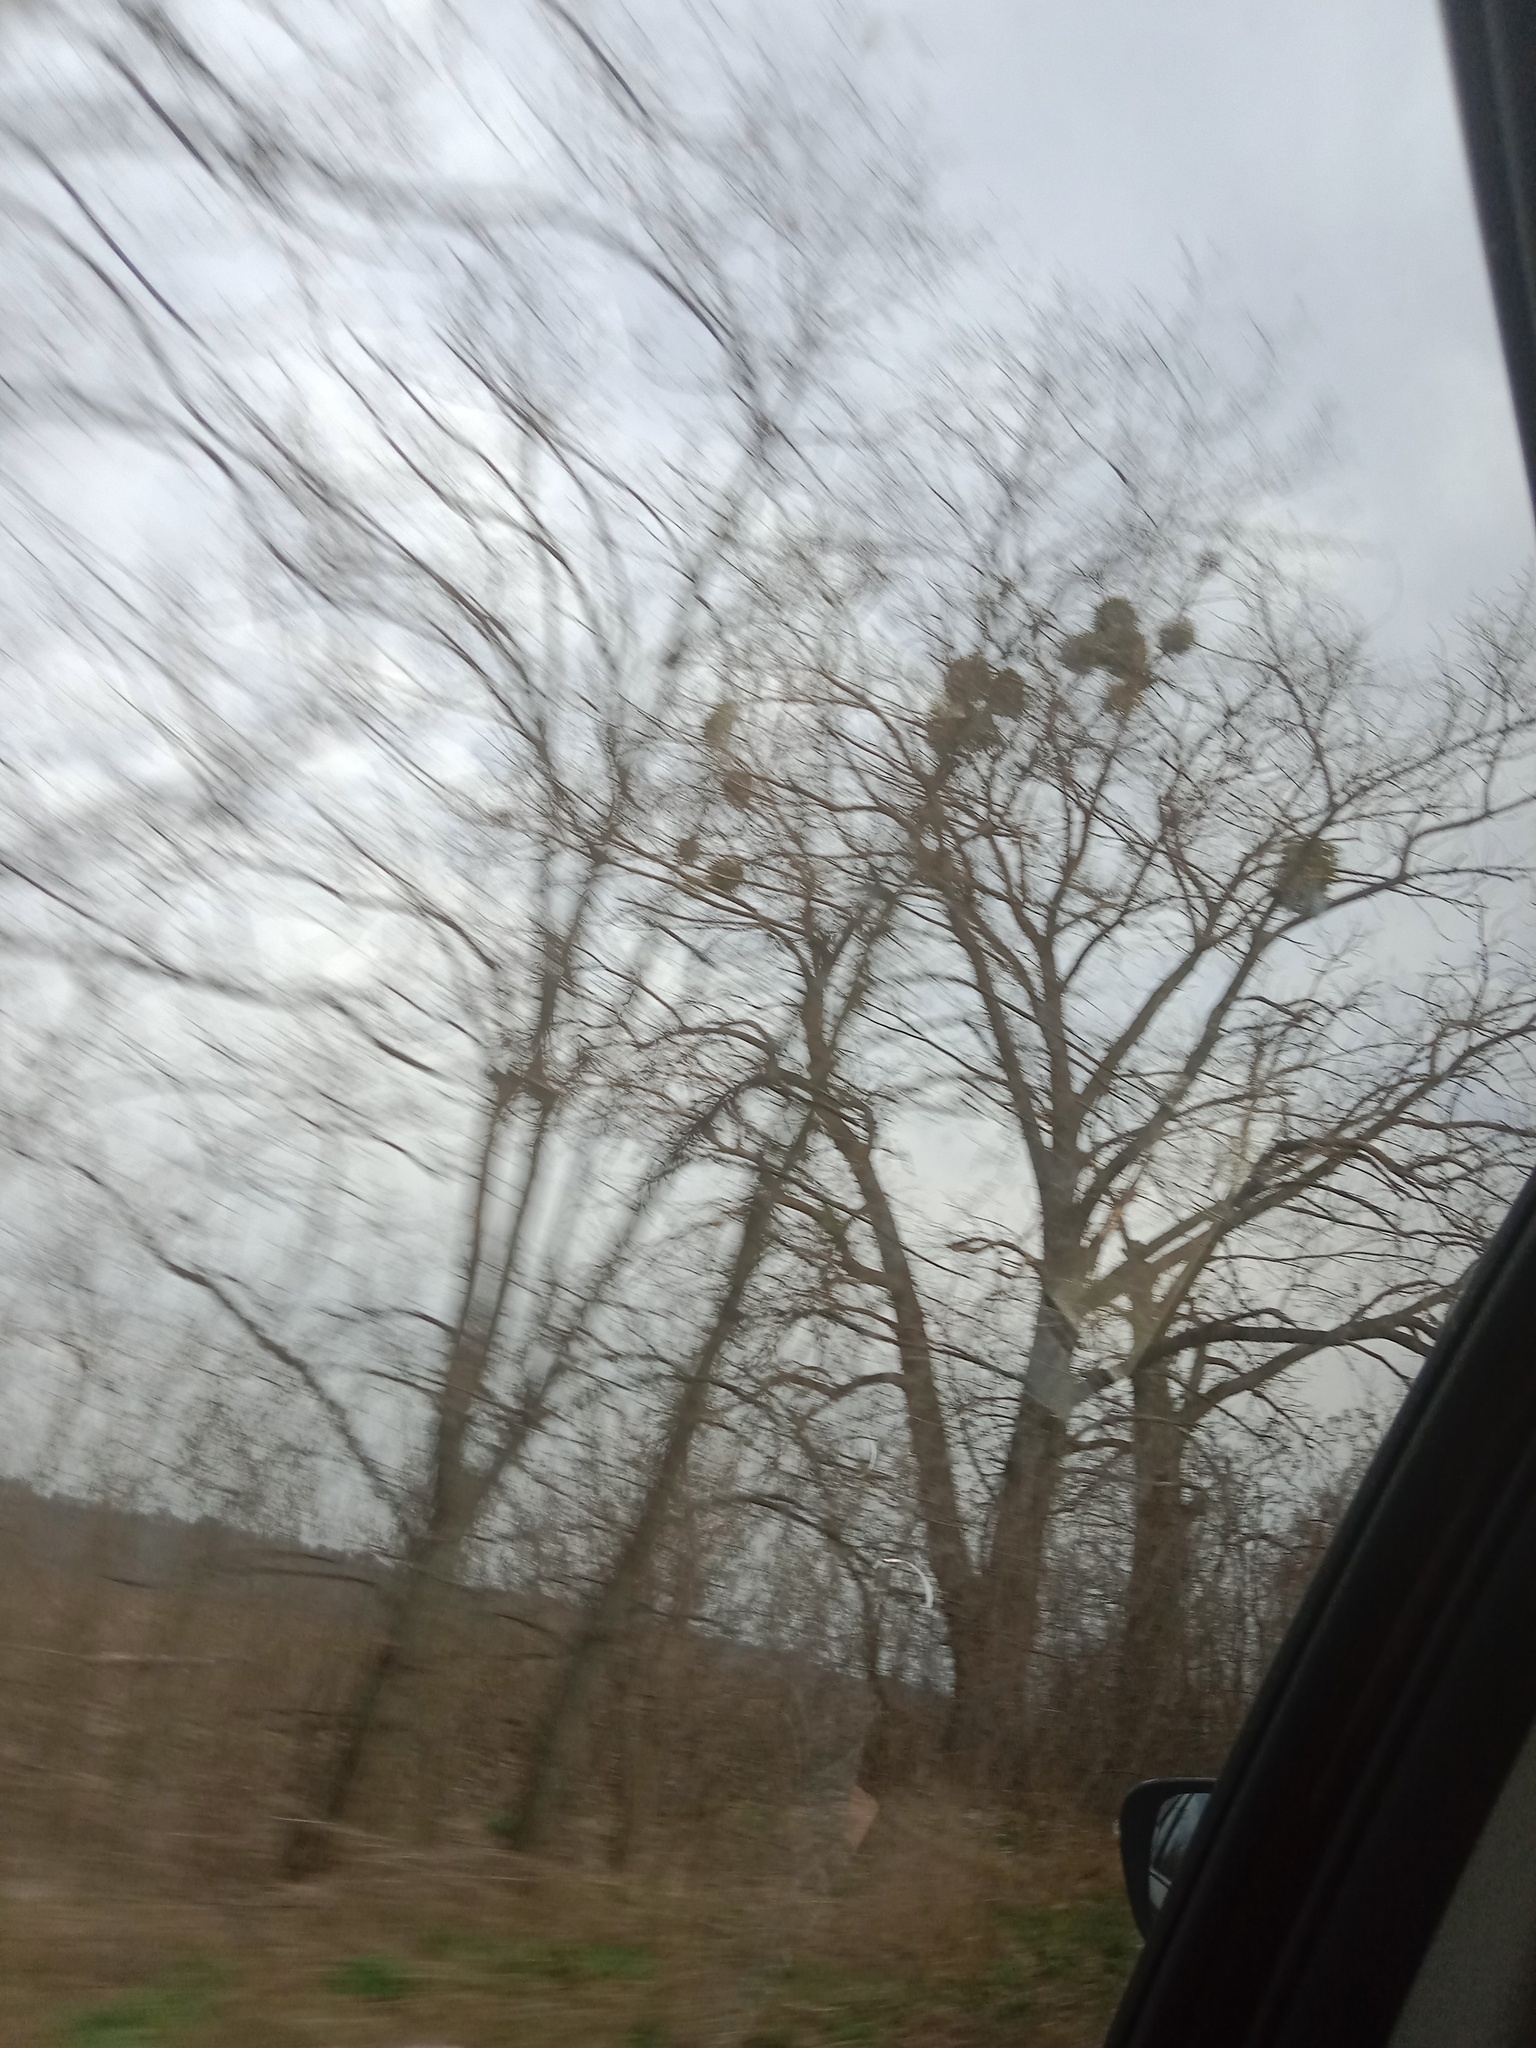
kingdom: Plantae
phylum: Tracheophyta
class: Magnoliopsida
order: Santalales
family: Viscaceae
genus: Viscum
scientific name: Viscum album
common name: Mistletoe
